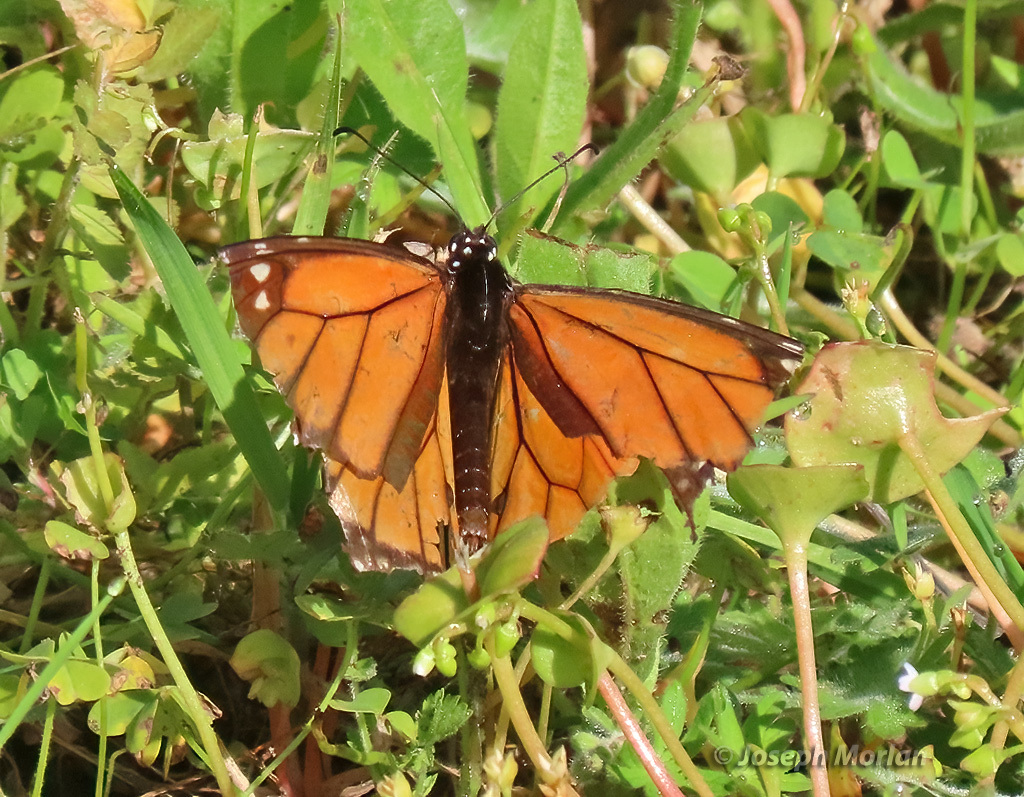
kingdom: Animalia
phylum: Arthropoda
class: Insecta
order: Lepidoptera
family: Nymphalidae
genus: Danaus
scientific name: Danaus plexippus
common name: Monarch
